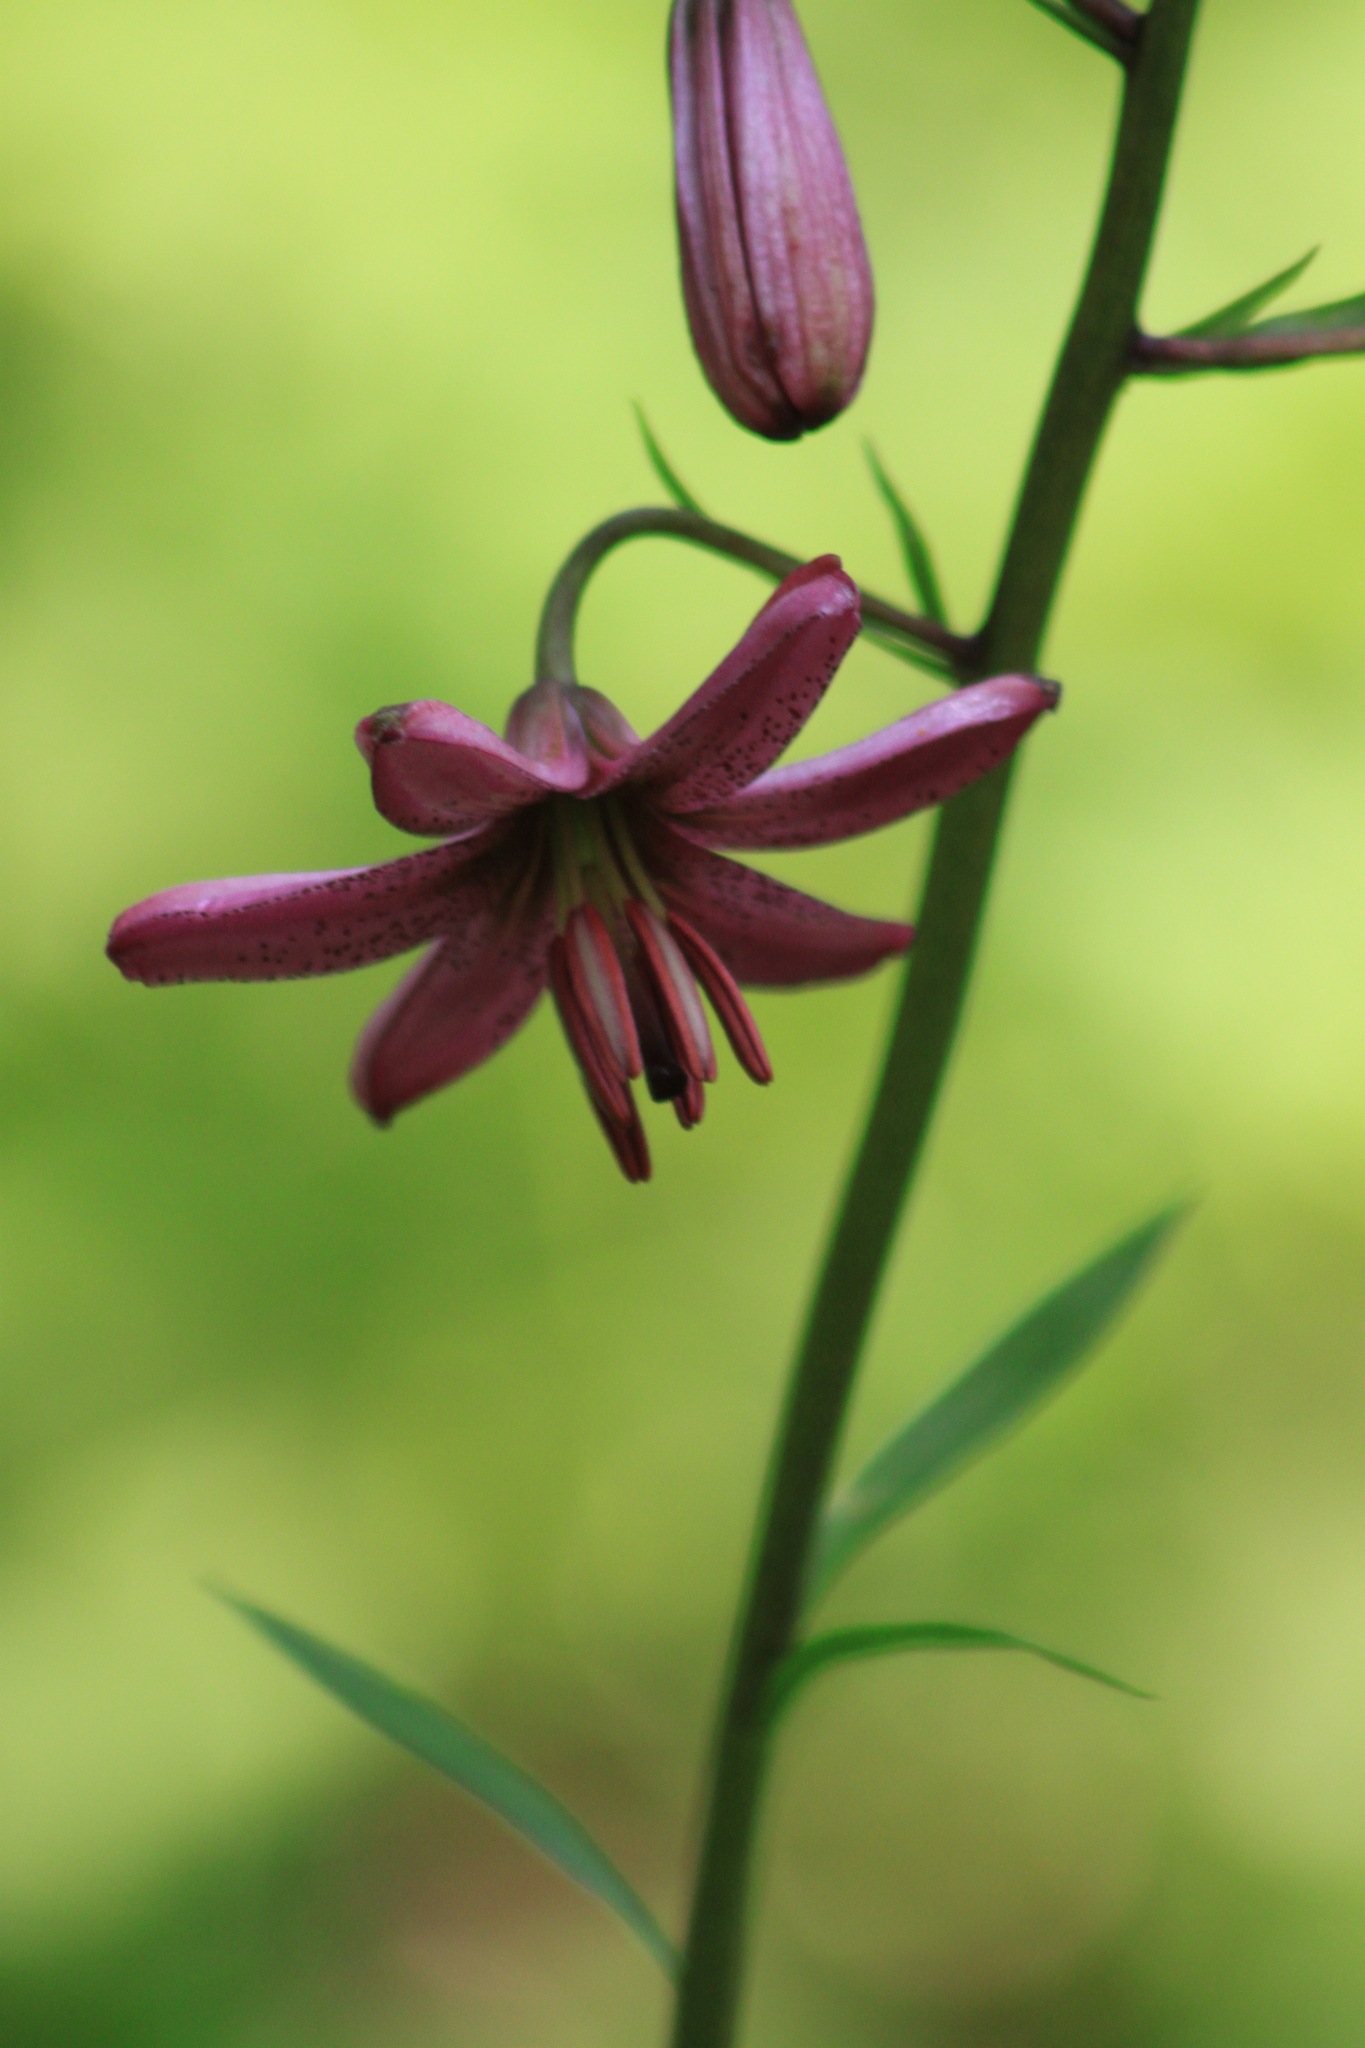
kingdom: Plantae
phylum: Tracheophyta
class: Liliopsida
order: Liliales
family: Liliaceae
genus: Lilium
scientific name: Lilium martagon
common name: Martagon lily
